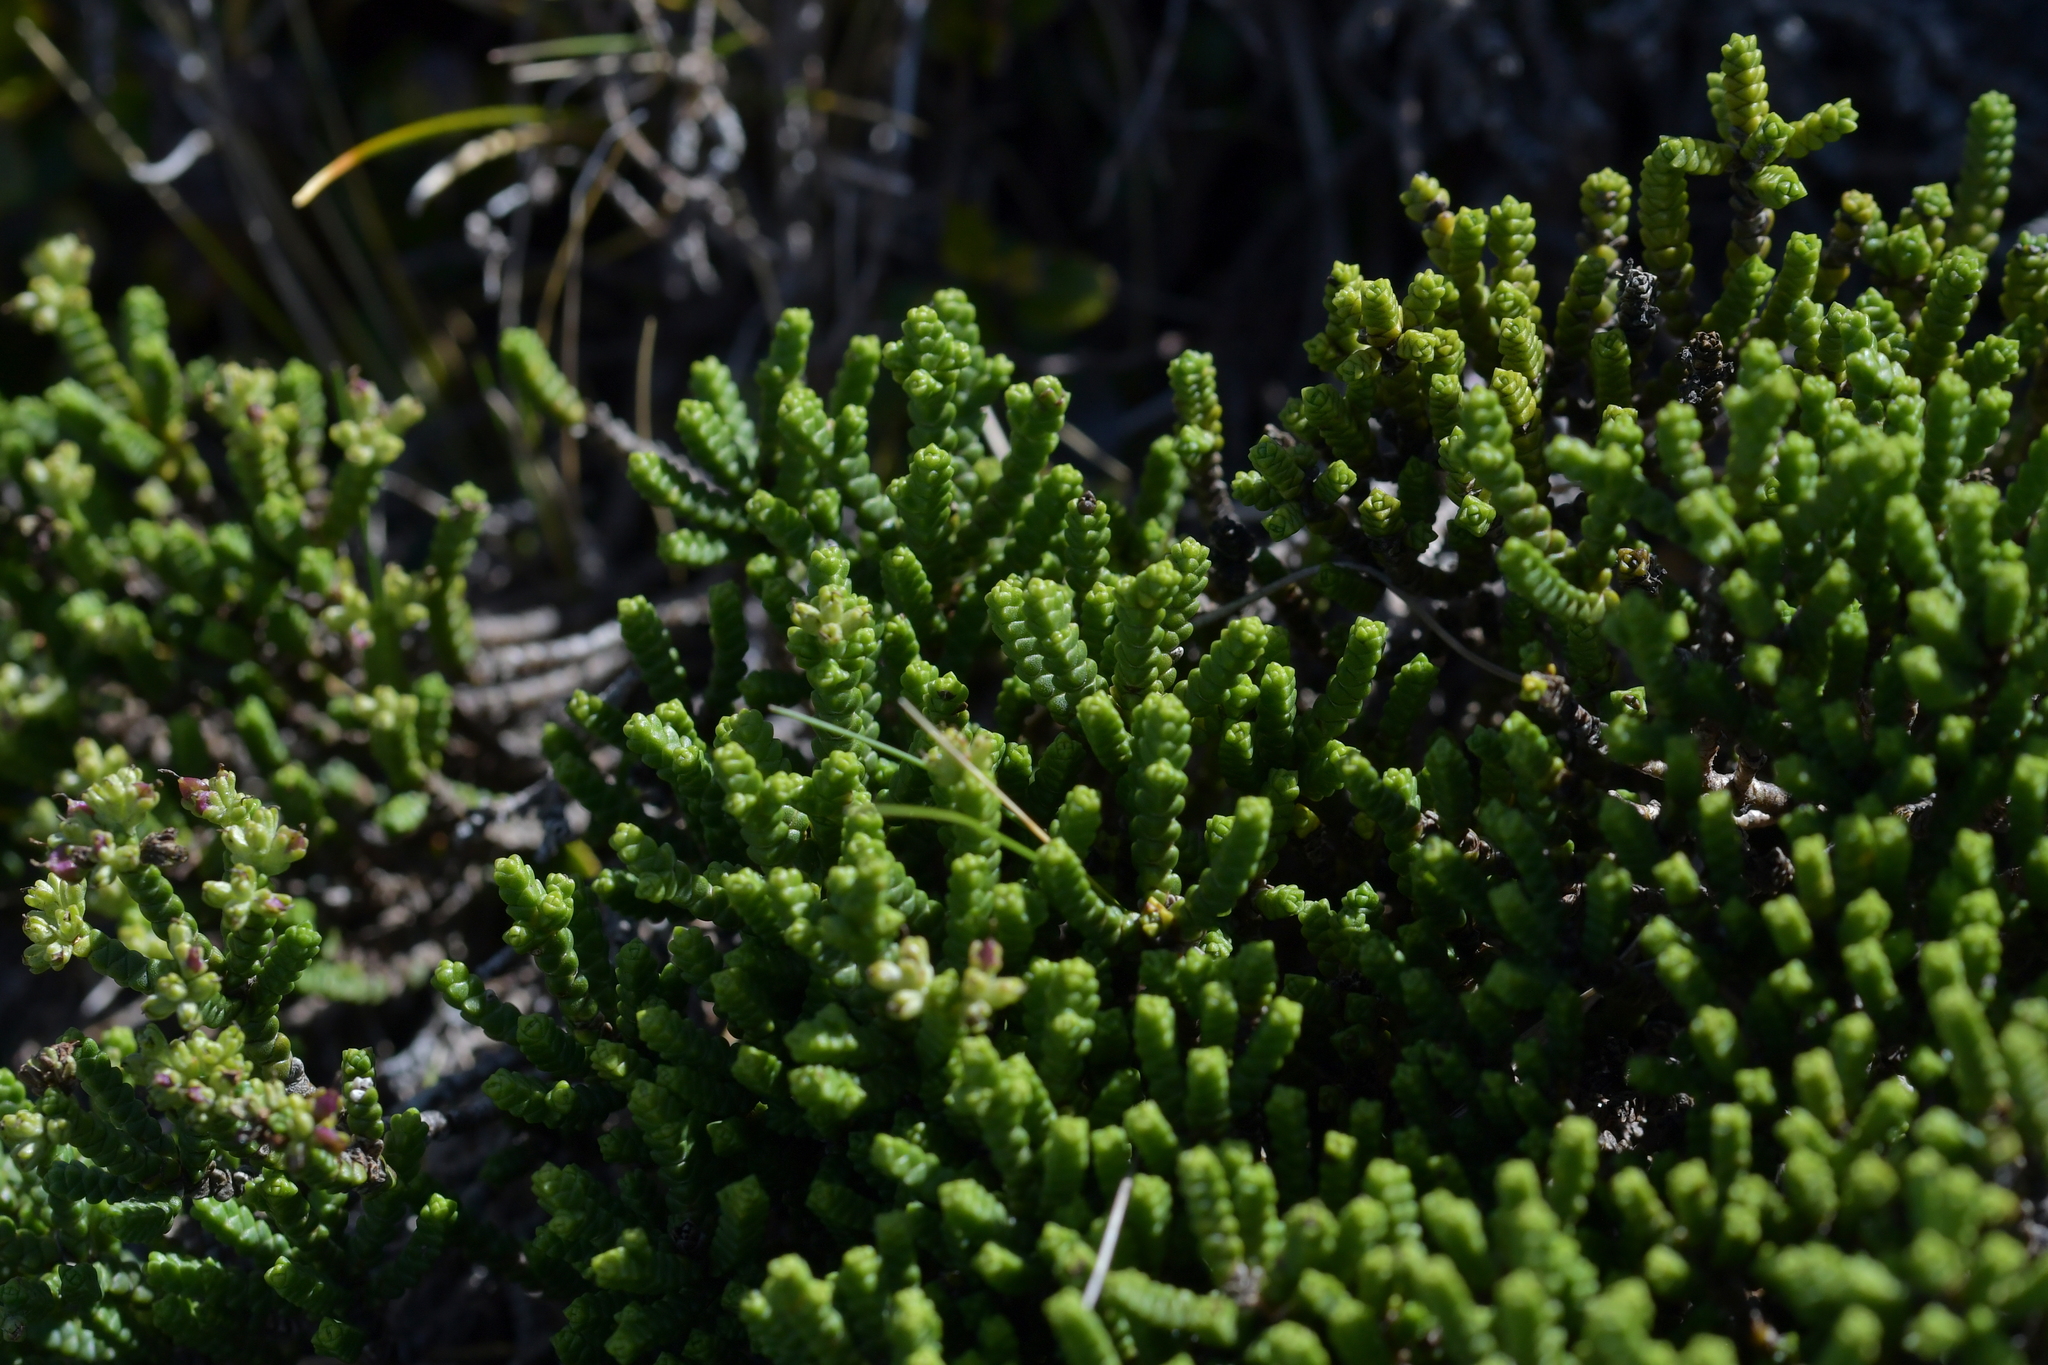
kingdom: Plantae
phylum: Tracheophyta
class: Magnoliopsida
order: Lamiales
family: Plantaginaceae
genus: Veronica
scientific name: Veronica tumida
